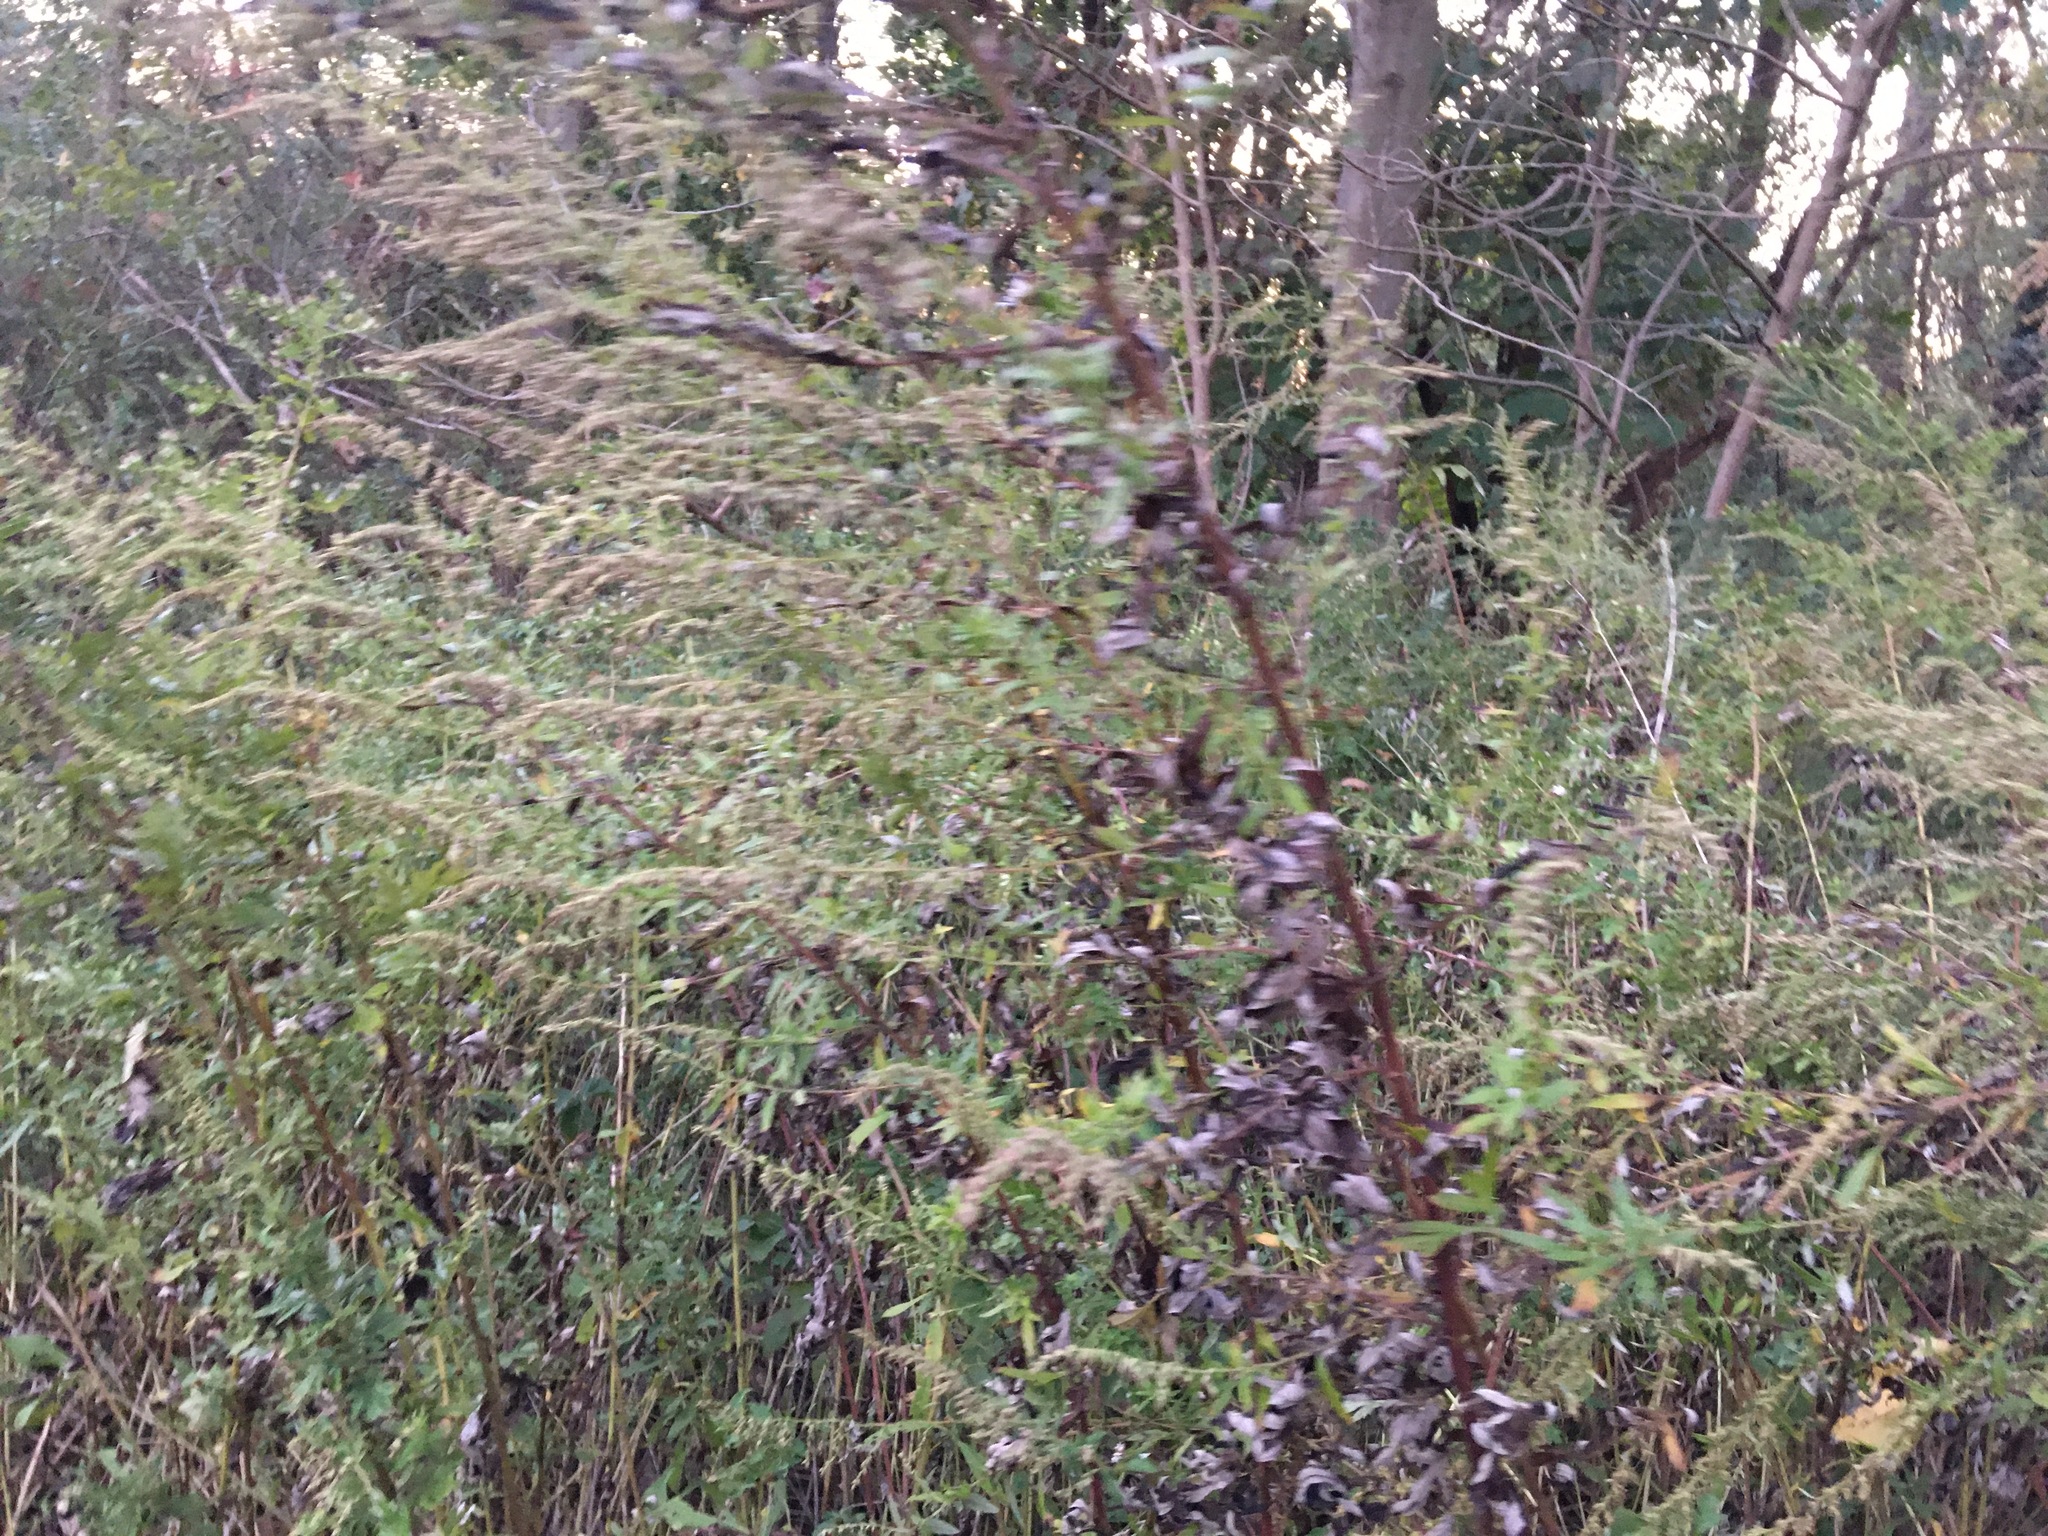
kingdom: Plantae
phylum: Tracheophyta
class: Magnoliopsida
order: Asterales
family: Asteraceae
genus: Artemisia
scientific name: Artemisia vulgaris
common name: Mugwort
